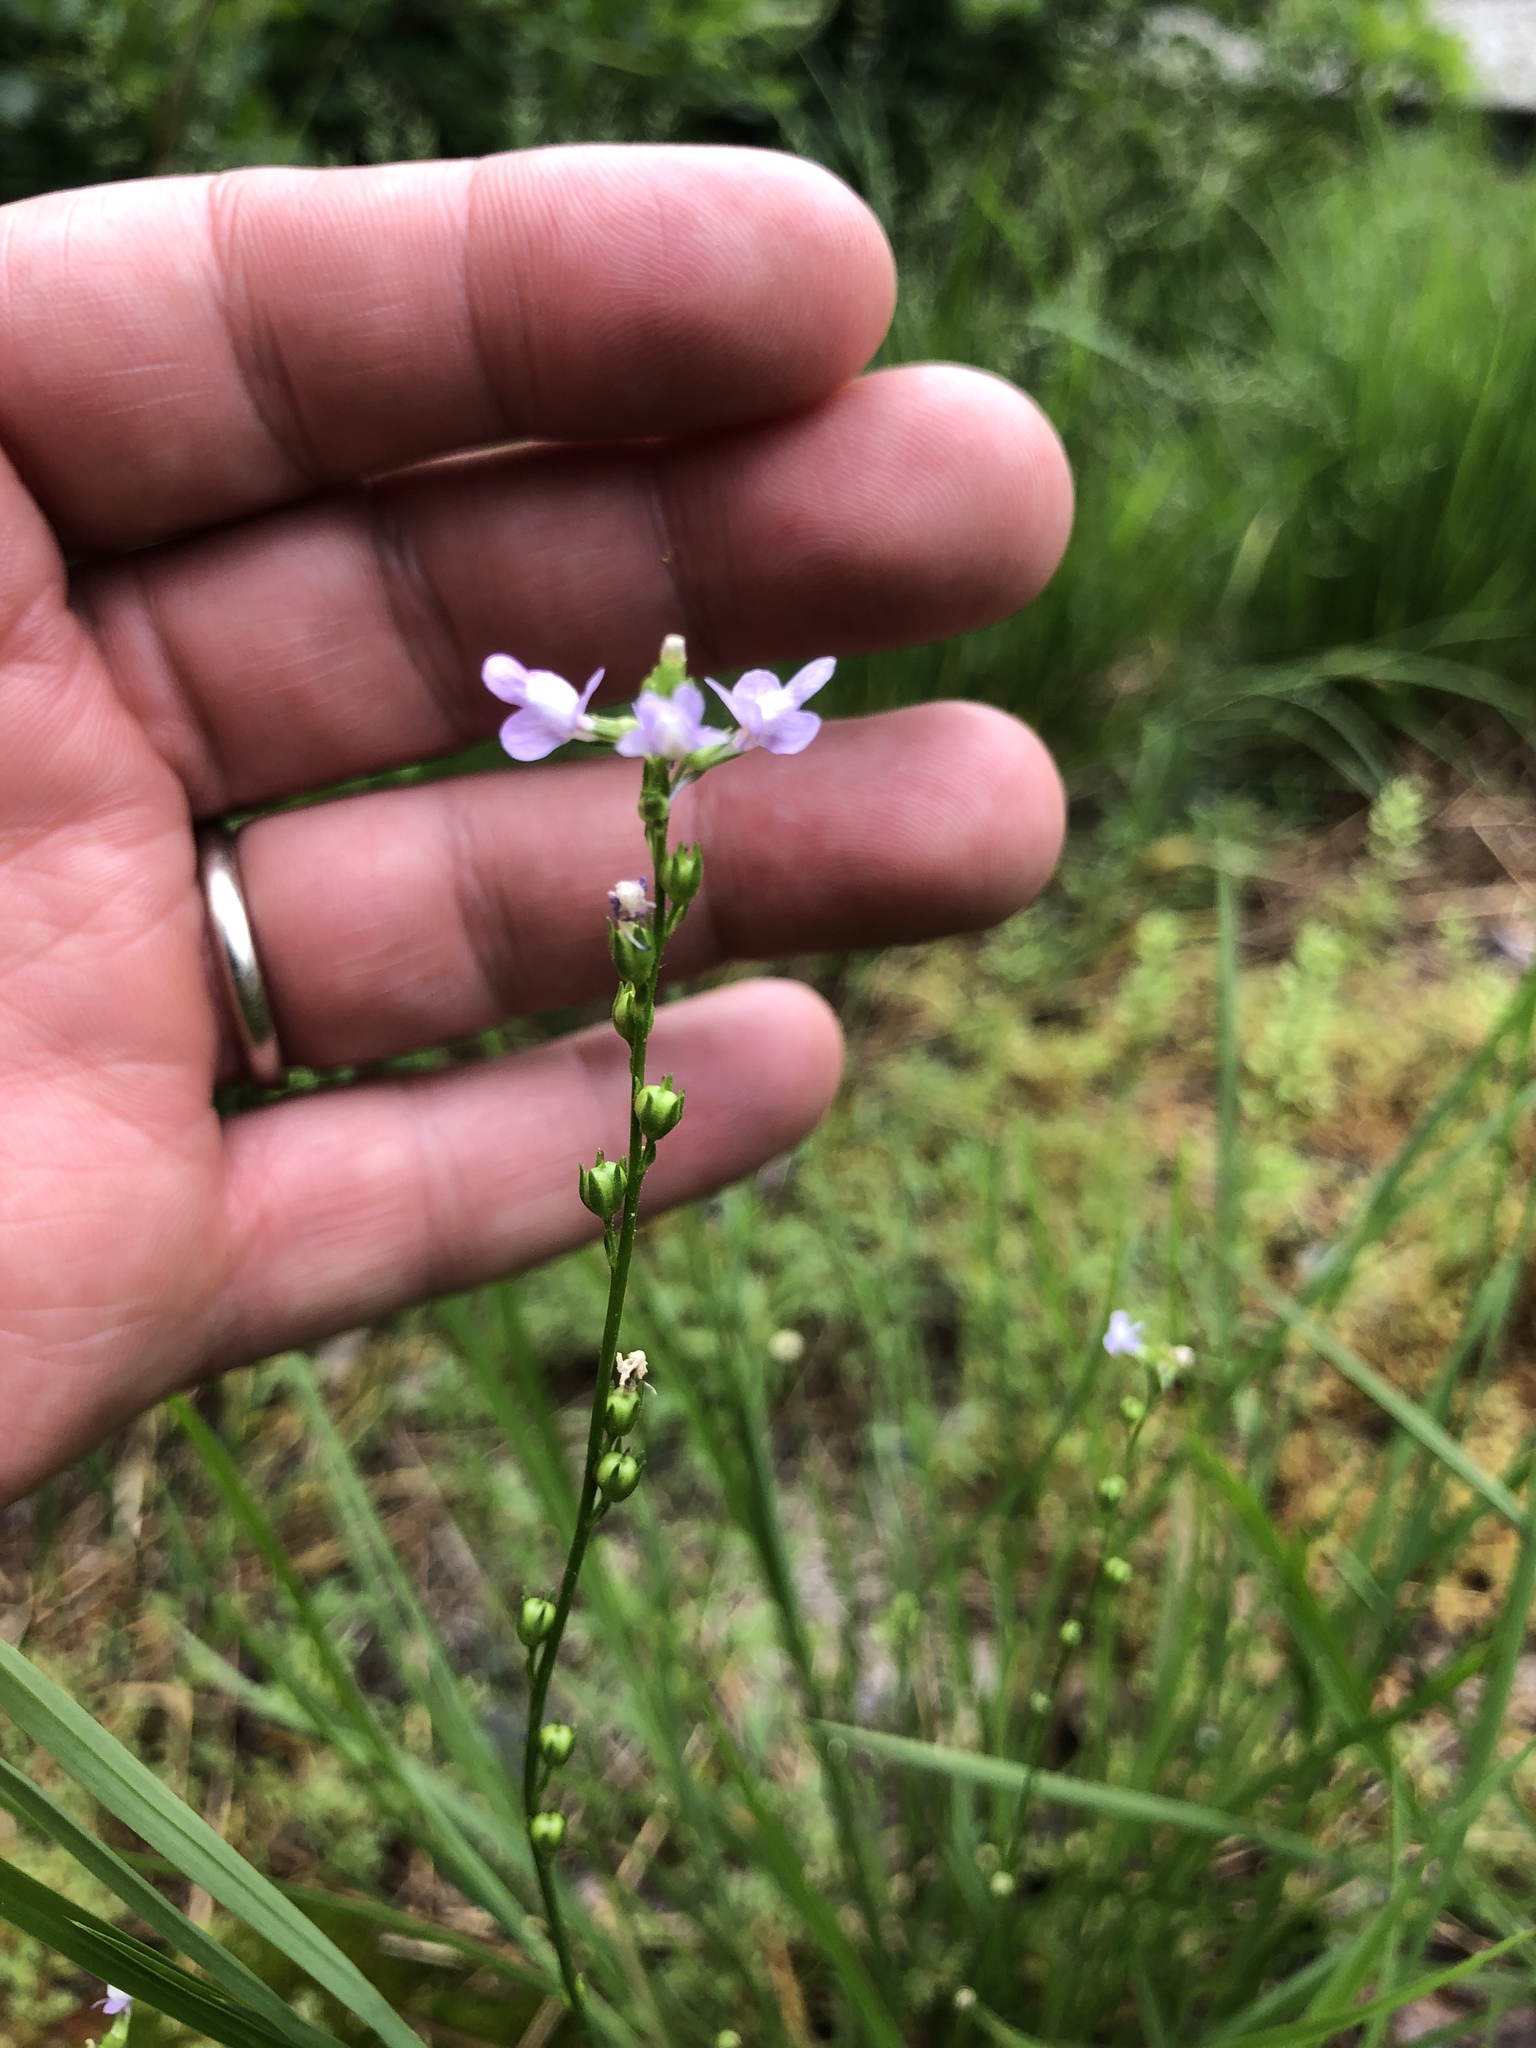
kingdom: Plantae
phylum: Tracheophyta
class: Magnoliopsida
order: Lamiales
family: Plantaginaceae
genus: Nuttallanthus
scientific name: Nuttallanthus canadensis
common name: Blue toadflax
